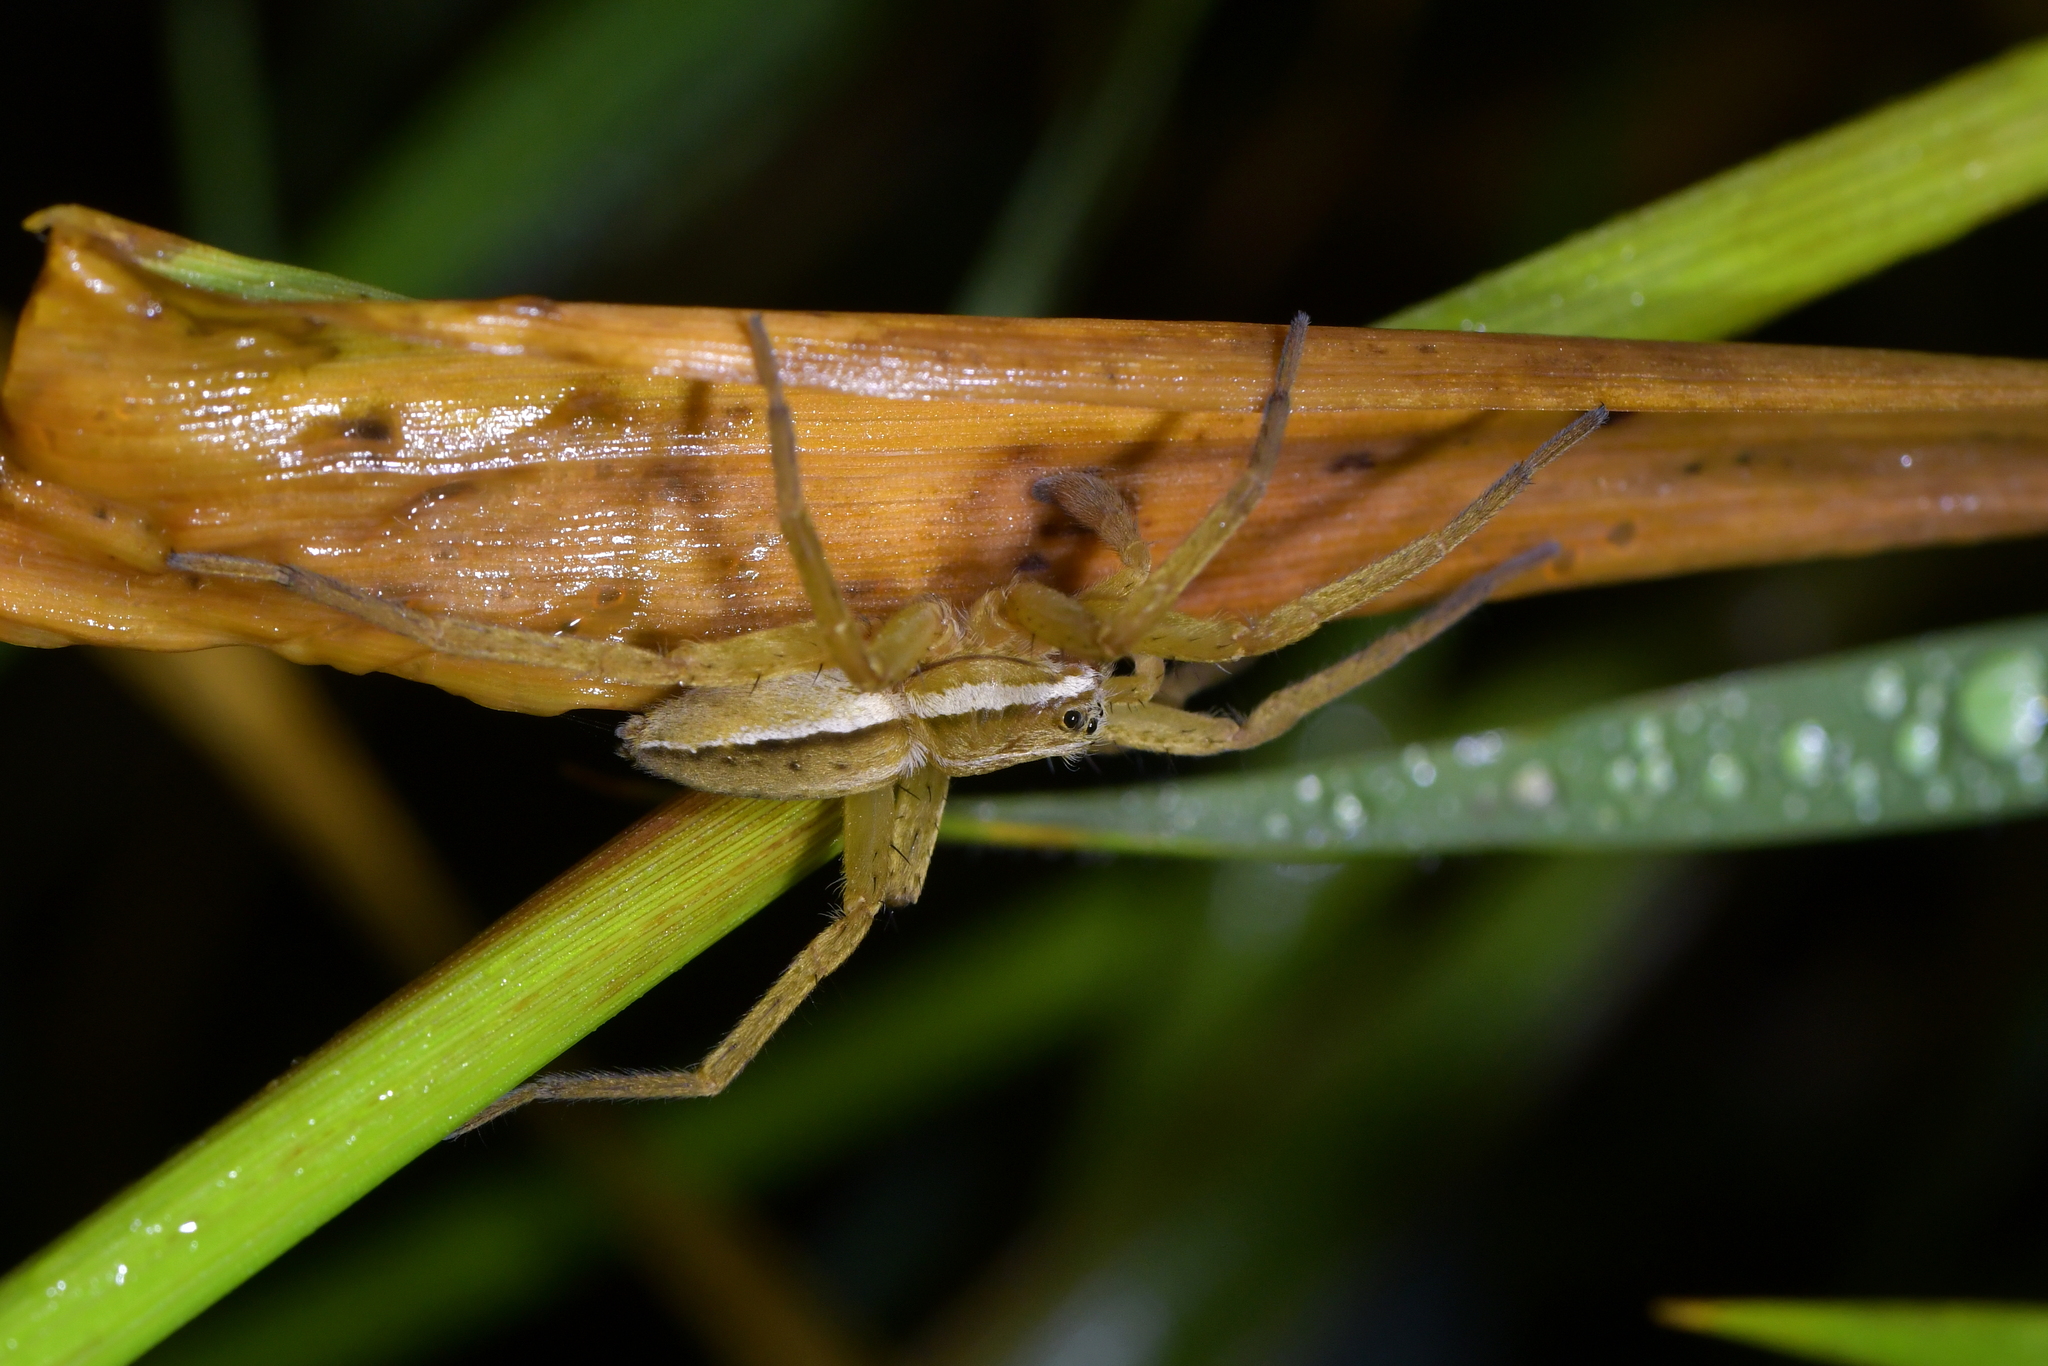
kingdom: Animalia
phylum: Arthropoda
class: Arachnida
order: Araneae
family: Pisauridae
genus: Dolomedes
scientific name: Dolomedes minor
